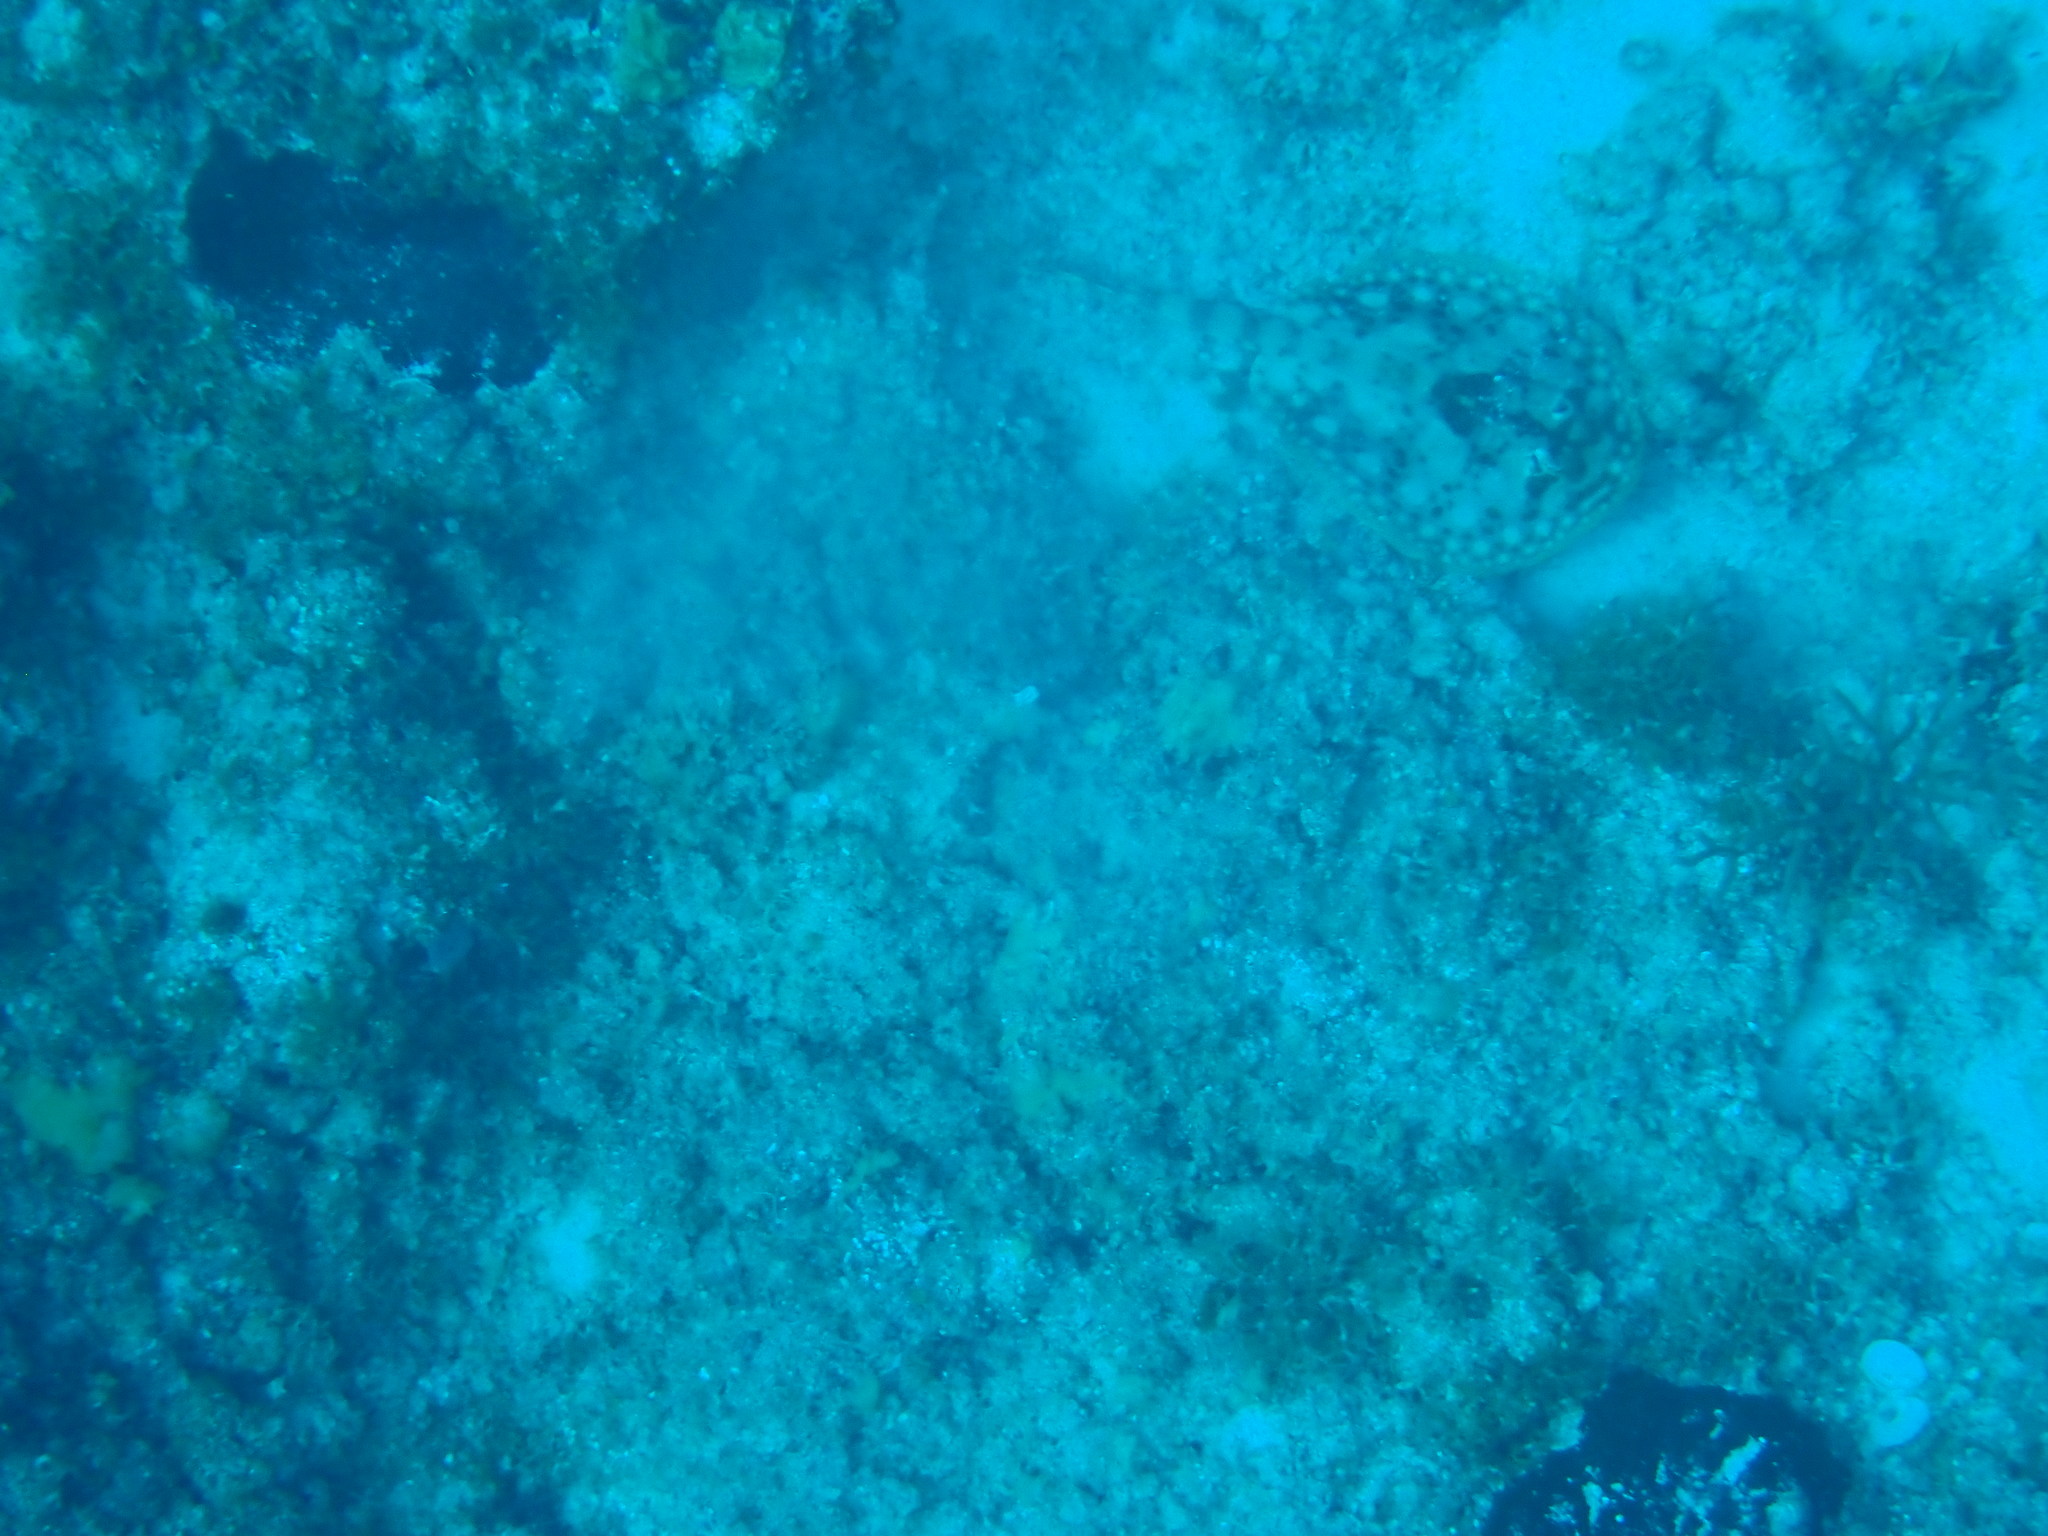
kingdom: Animalia
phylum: Chordata
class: Elasmobranchii
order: Myliobatiformes
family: Urotrygonidae
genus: Urobatis
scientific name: Urobatis jamaicensis
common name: Yellow stingray
